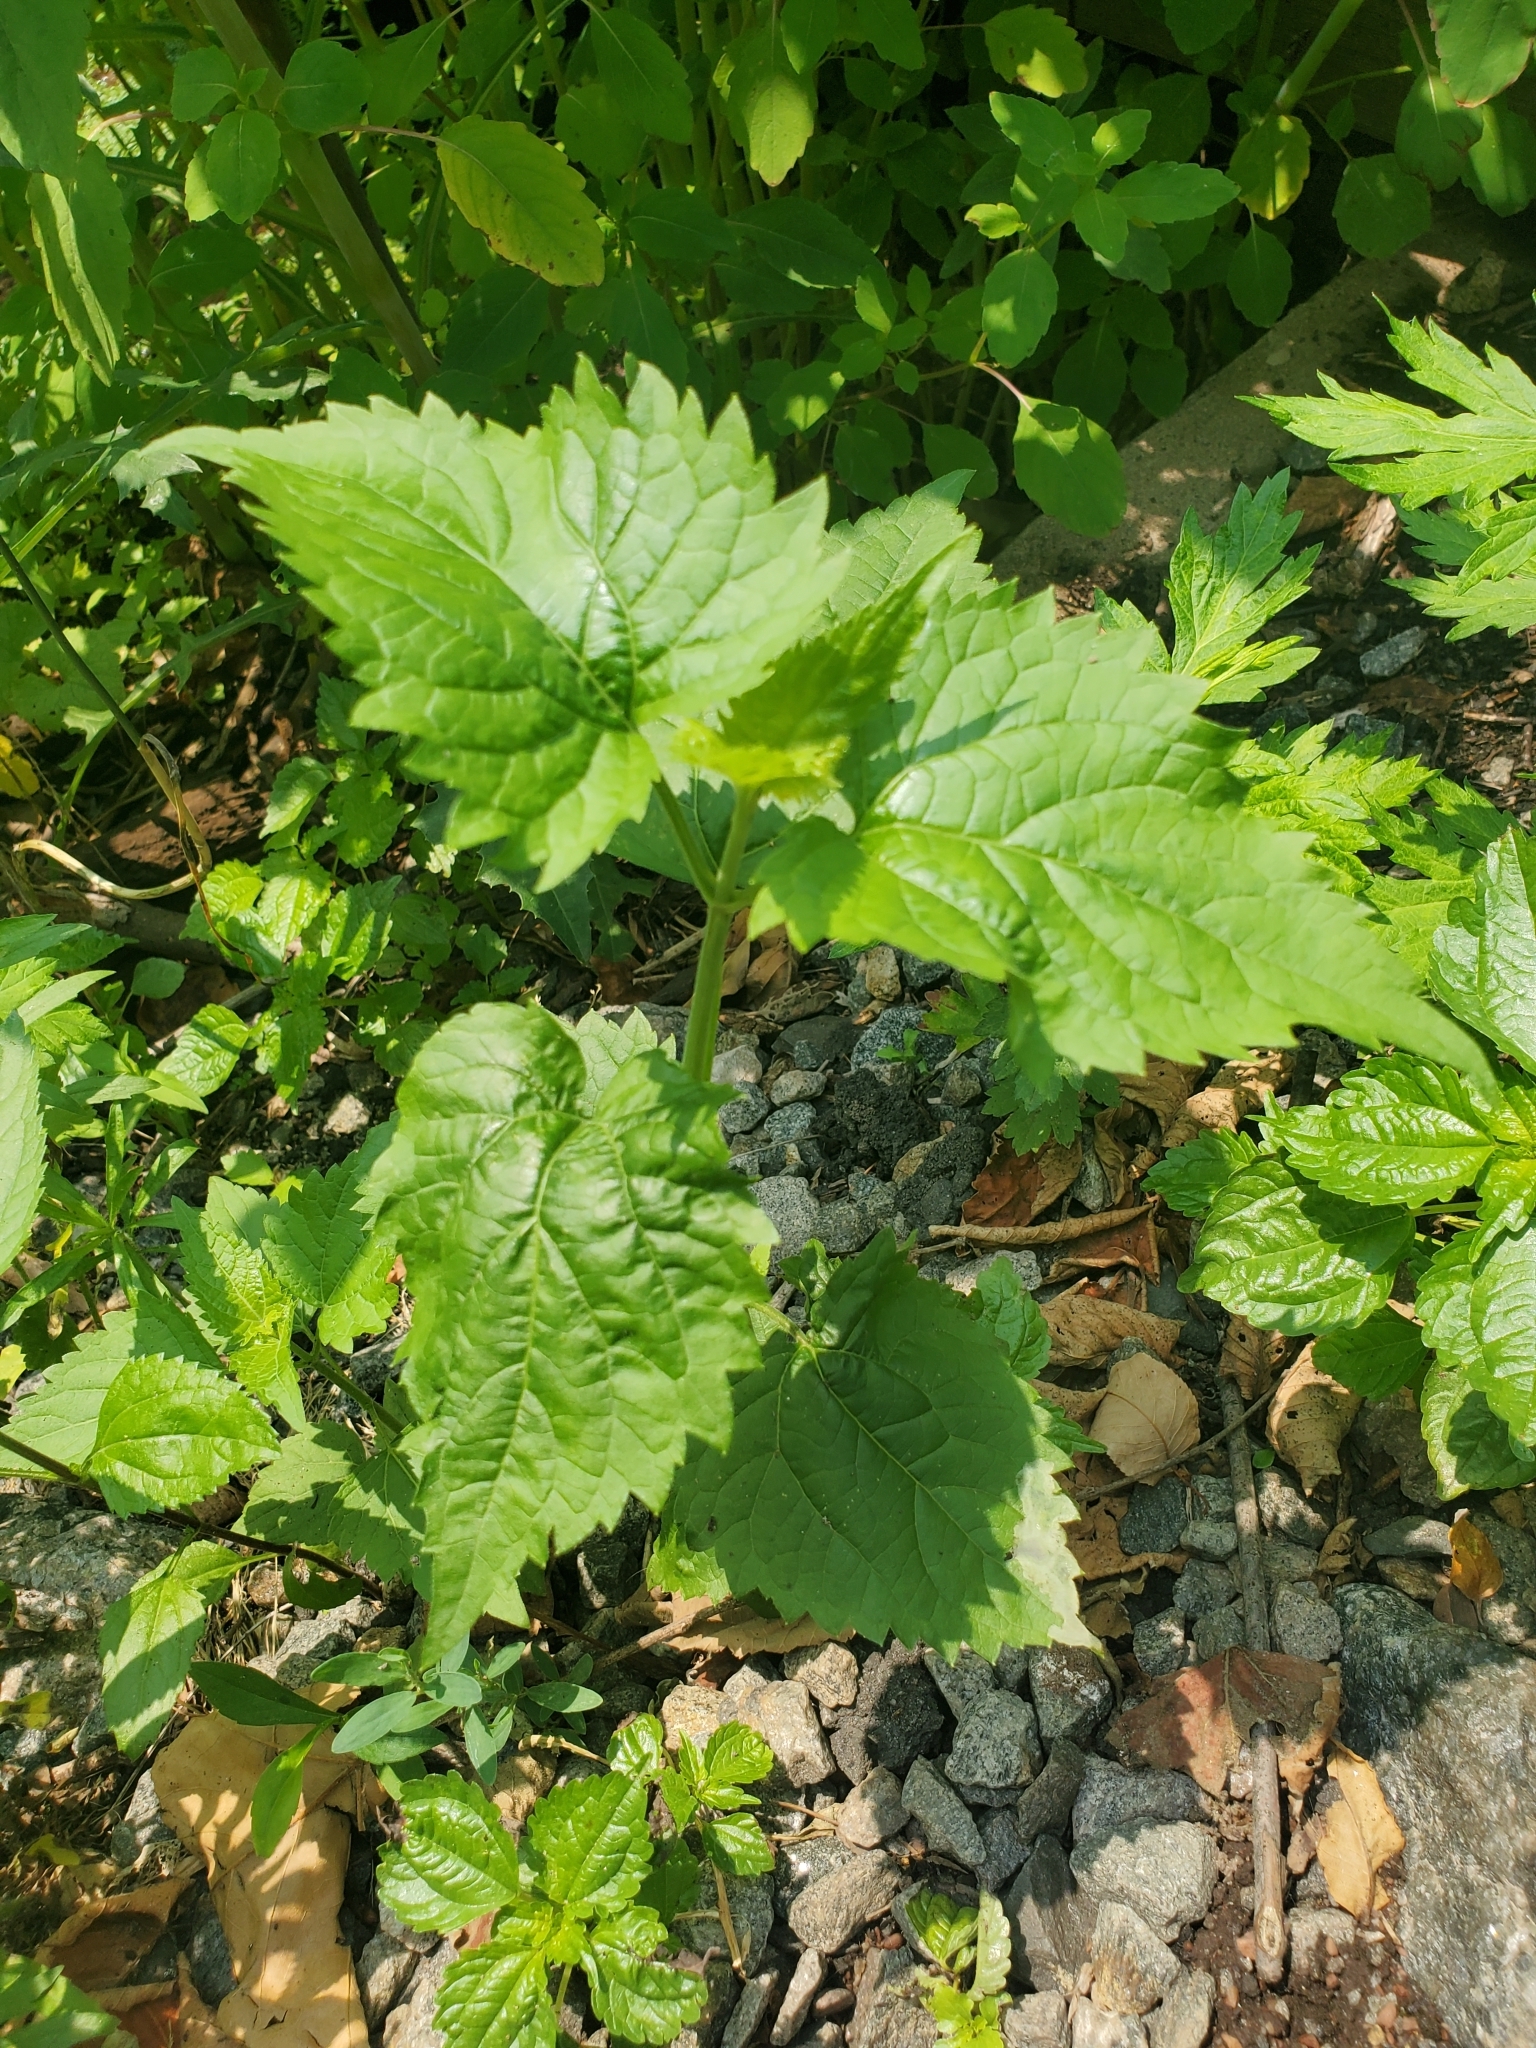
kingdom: Plantae
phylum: Tracheophyta
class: Magnoliopsida
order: Asterales
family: Asteraceae
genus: Ageratina
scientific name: Ageratina altissima
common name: White snakeroot
